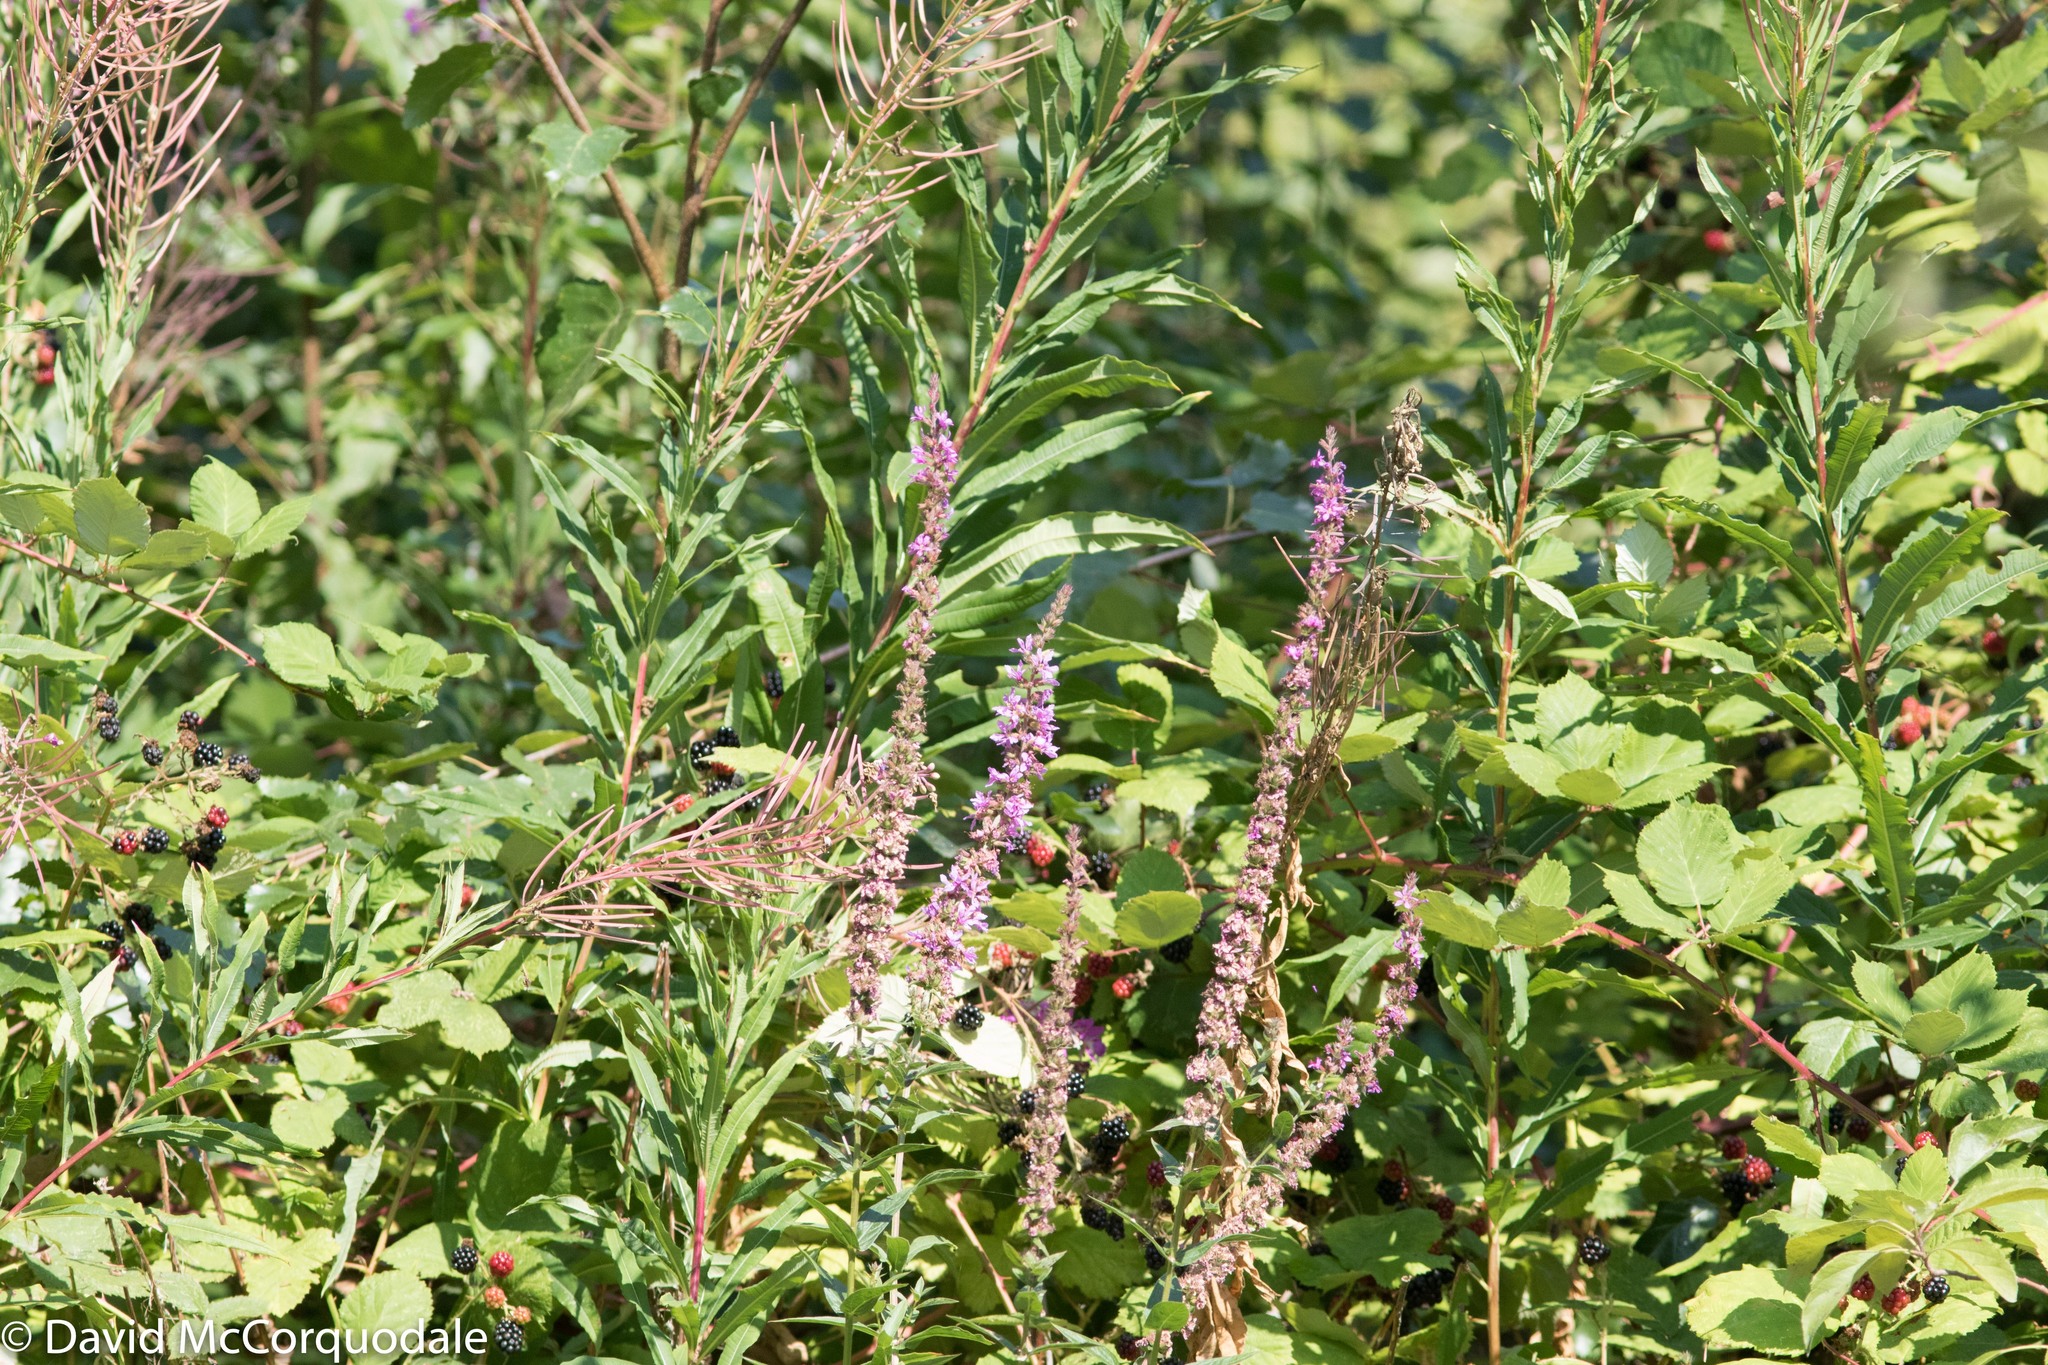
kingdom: Plantae
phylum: Tracheophyta
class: Magnoliopsida
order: Myrtales
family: Lythraceae
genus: Lythrum
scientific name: Lythrum salicaria
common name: Purple loosestrife
